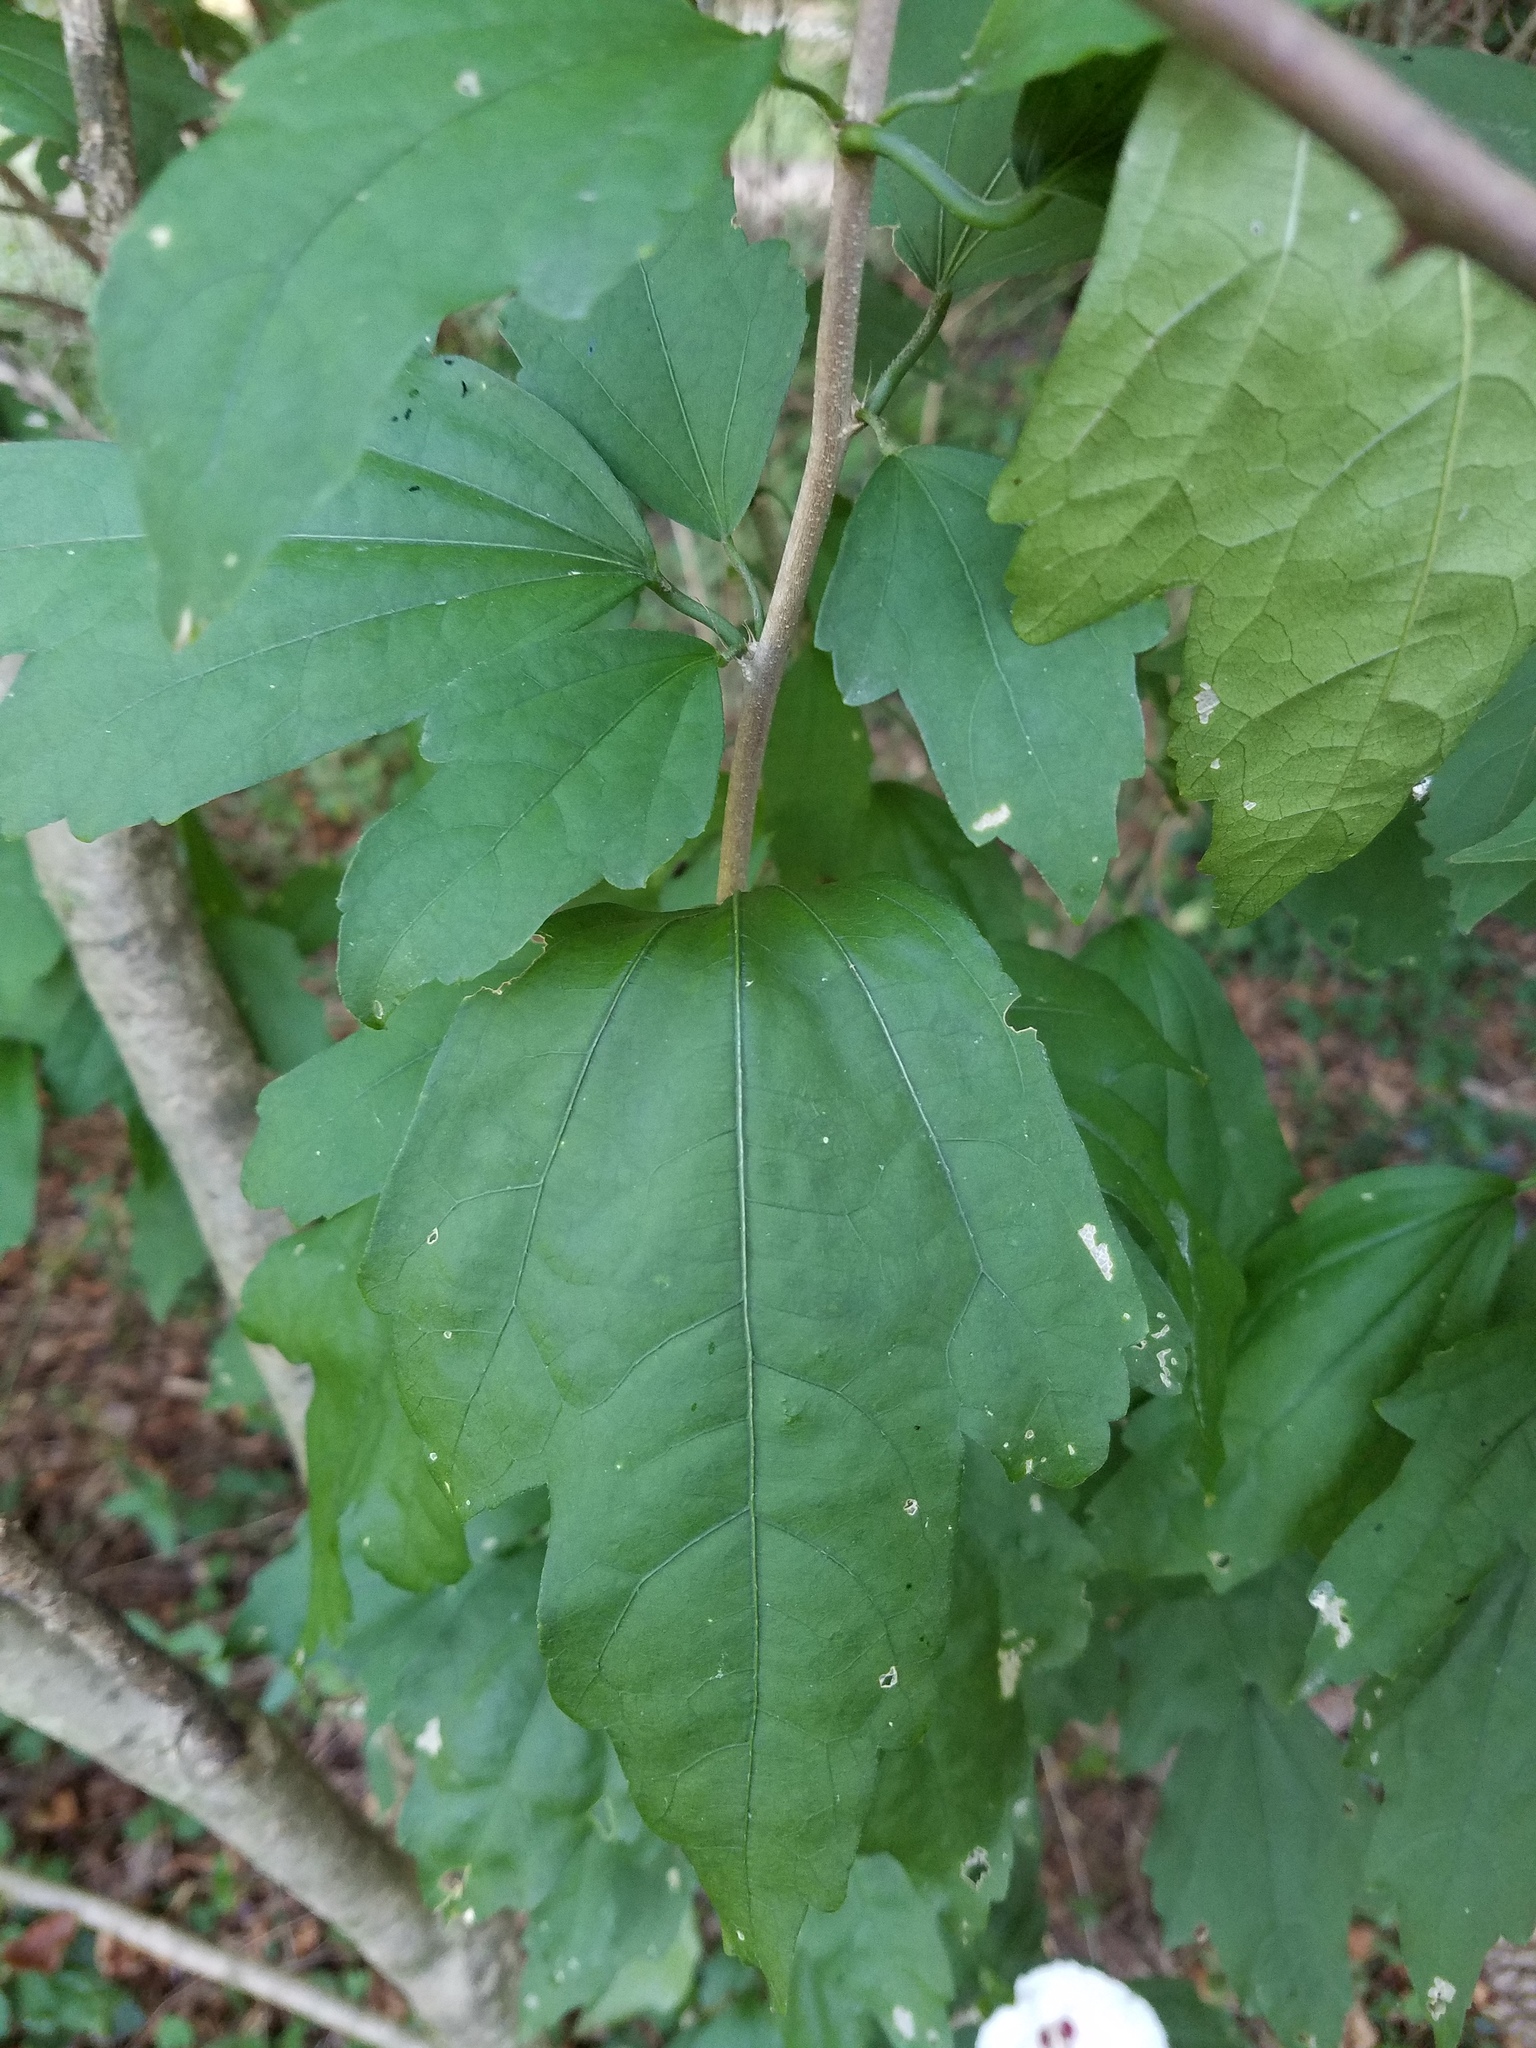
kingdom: Plantae
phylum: Tracheophyta
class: Magnoliopsida
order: Malvales
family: Malvaceae
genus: Hibiscus
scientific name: Hibiscus syriacus
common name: Syrian ketmia
